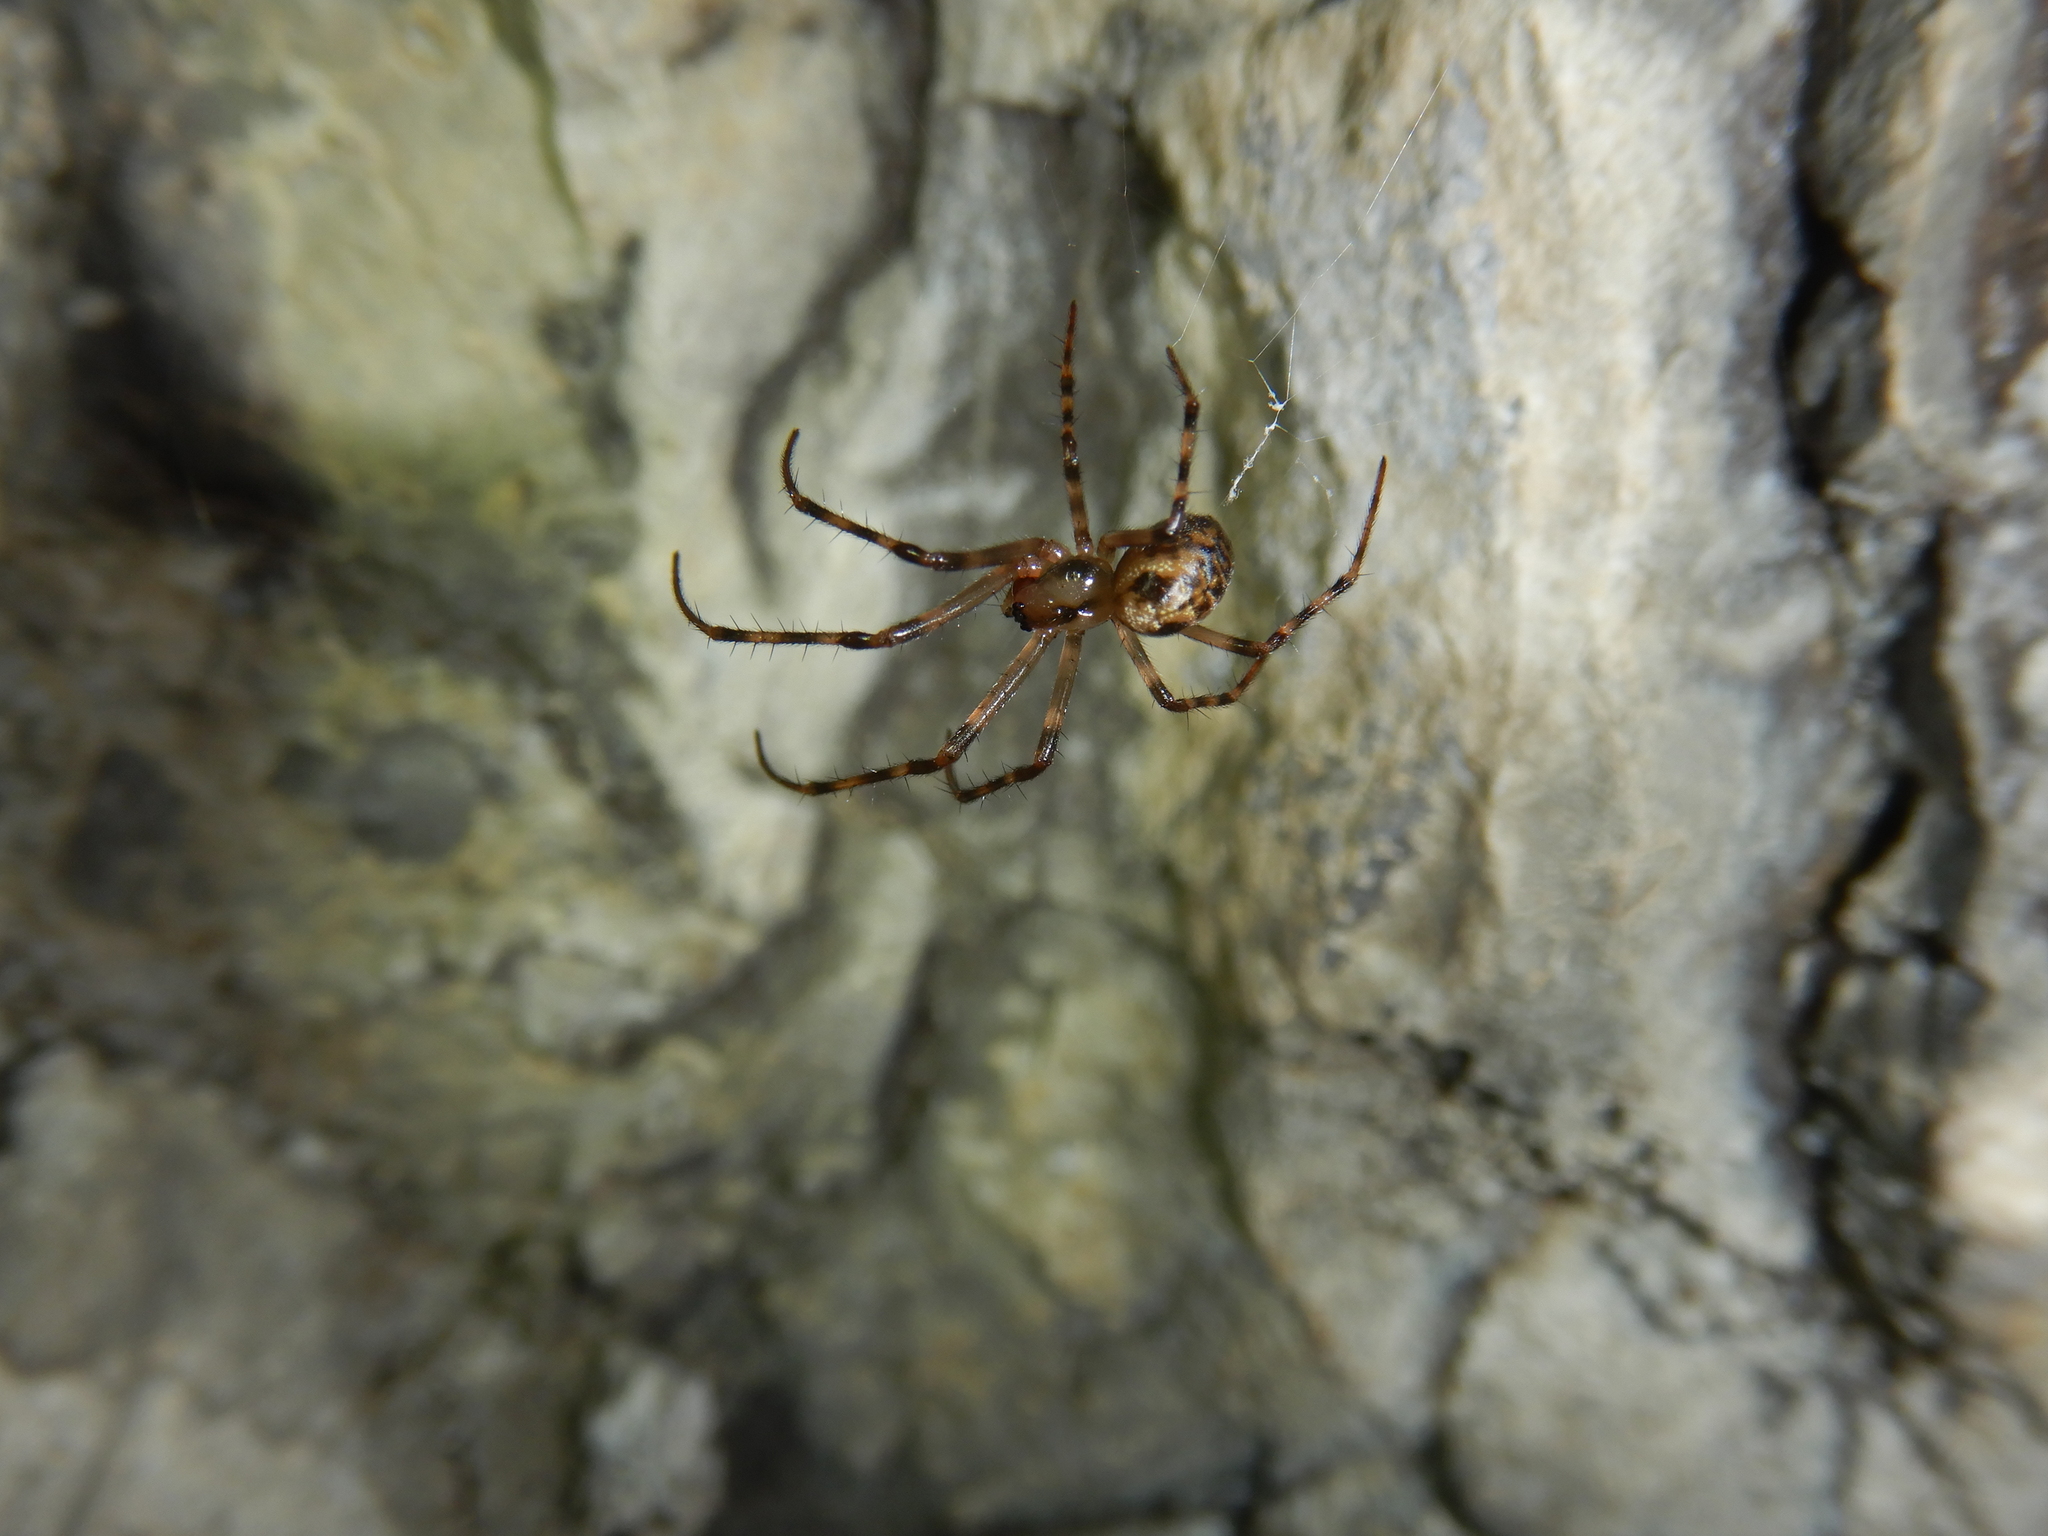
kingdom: Animalia
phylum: Arthropoda
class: Arachnida
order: Araneae
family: Tetragnathidae
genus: Meta
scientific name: Meta menardi
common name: Cave spider
